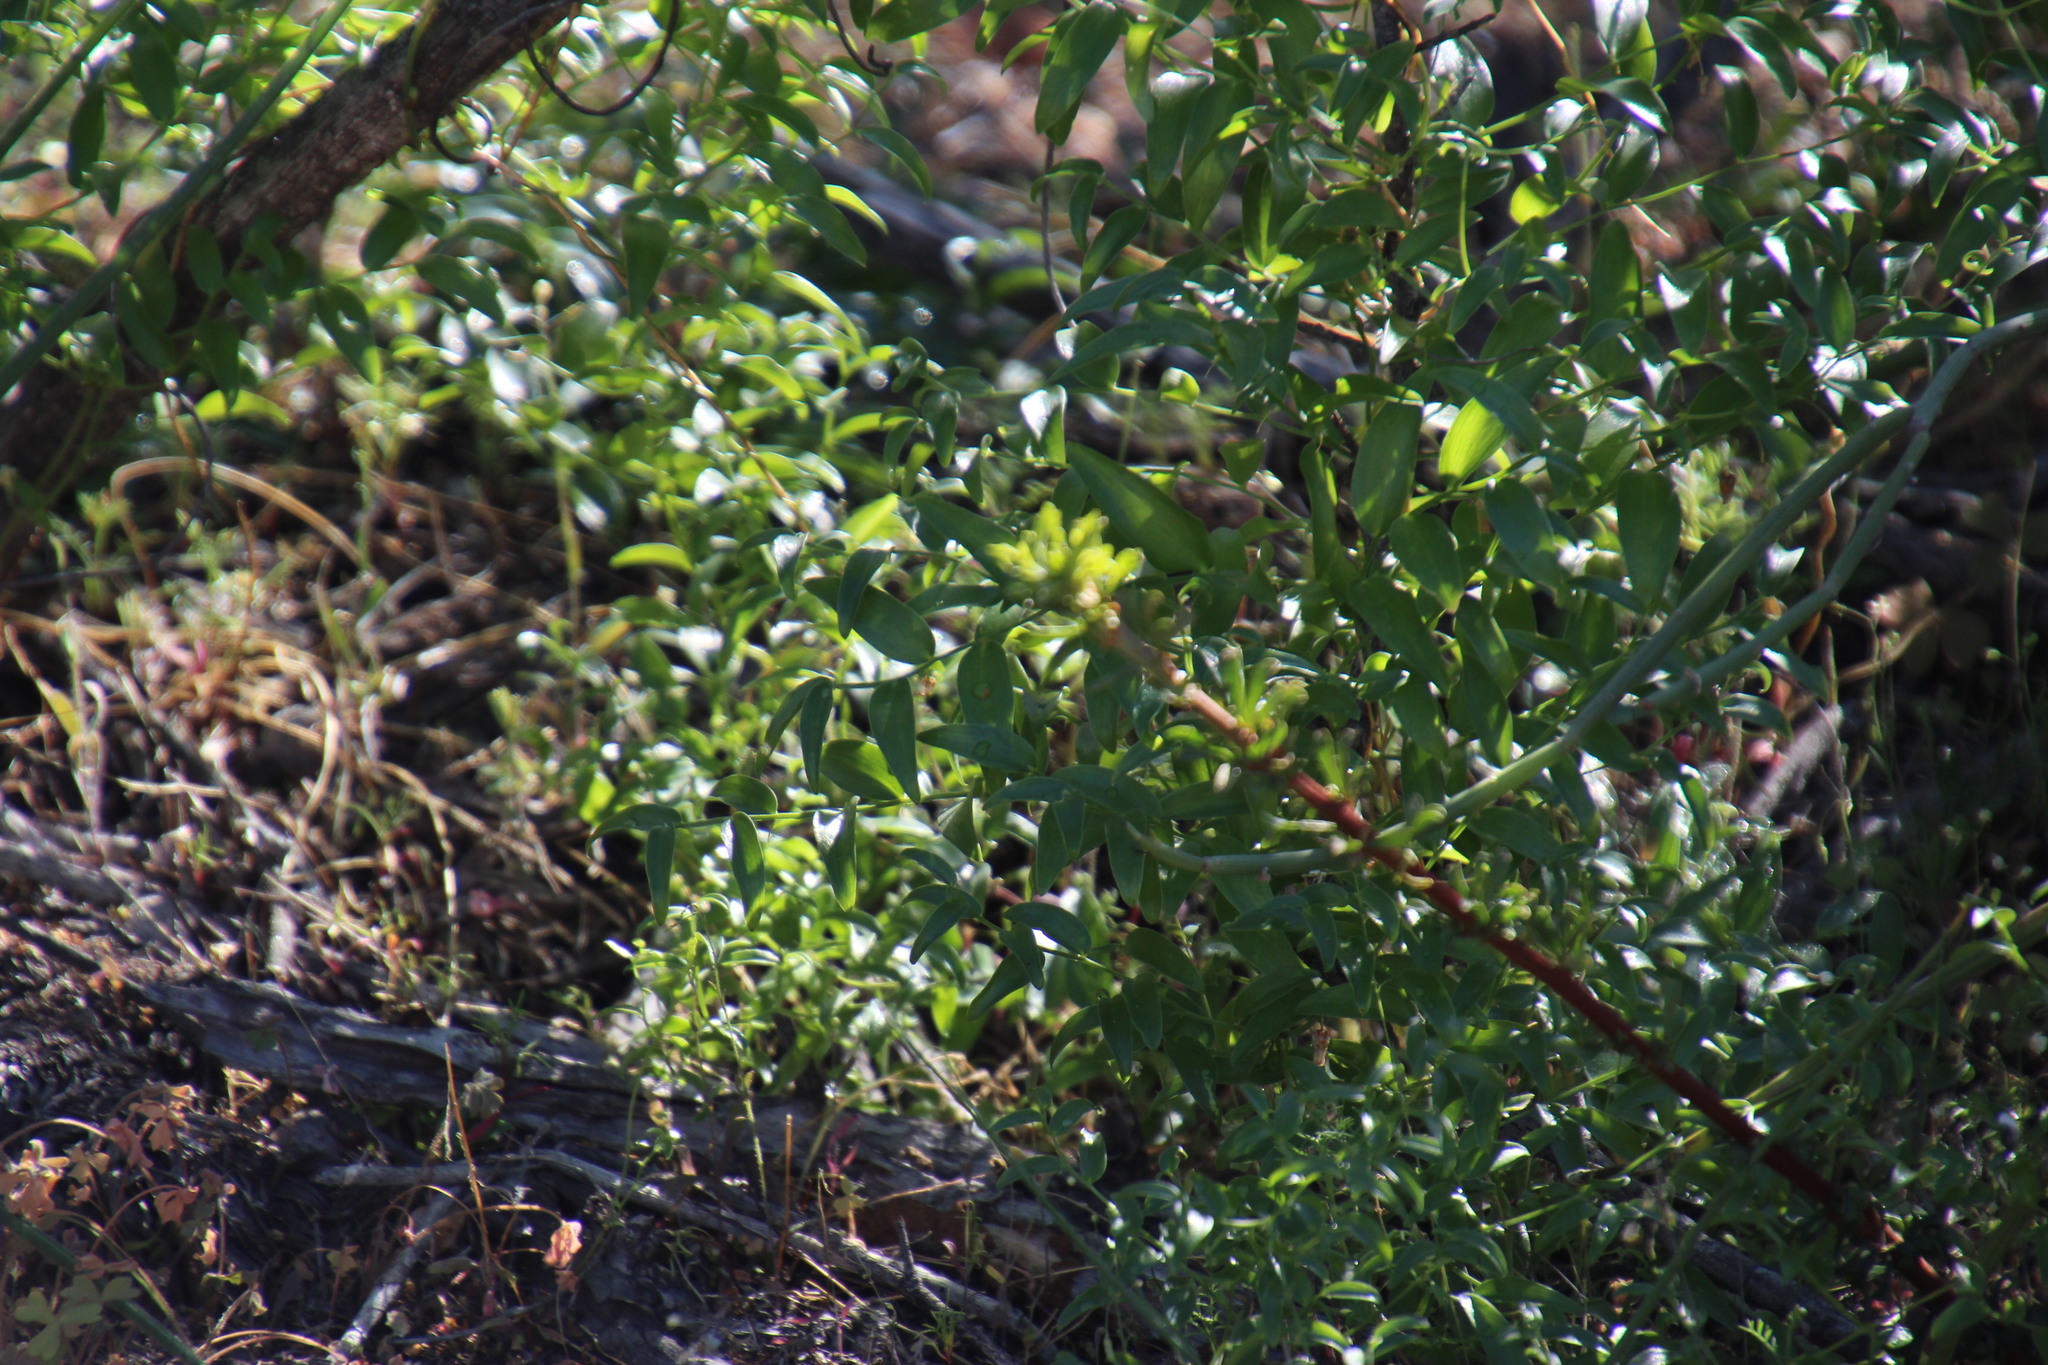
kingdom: Plantae
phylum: Tracheophyta
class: Liliopsida
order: Asparagales
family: Asparagaceae
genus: Asparagus
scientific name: Asparagus asparagoides
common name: African asparagus fern
